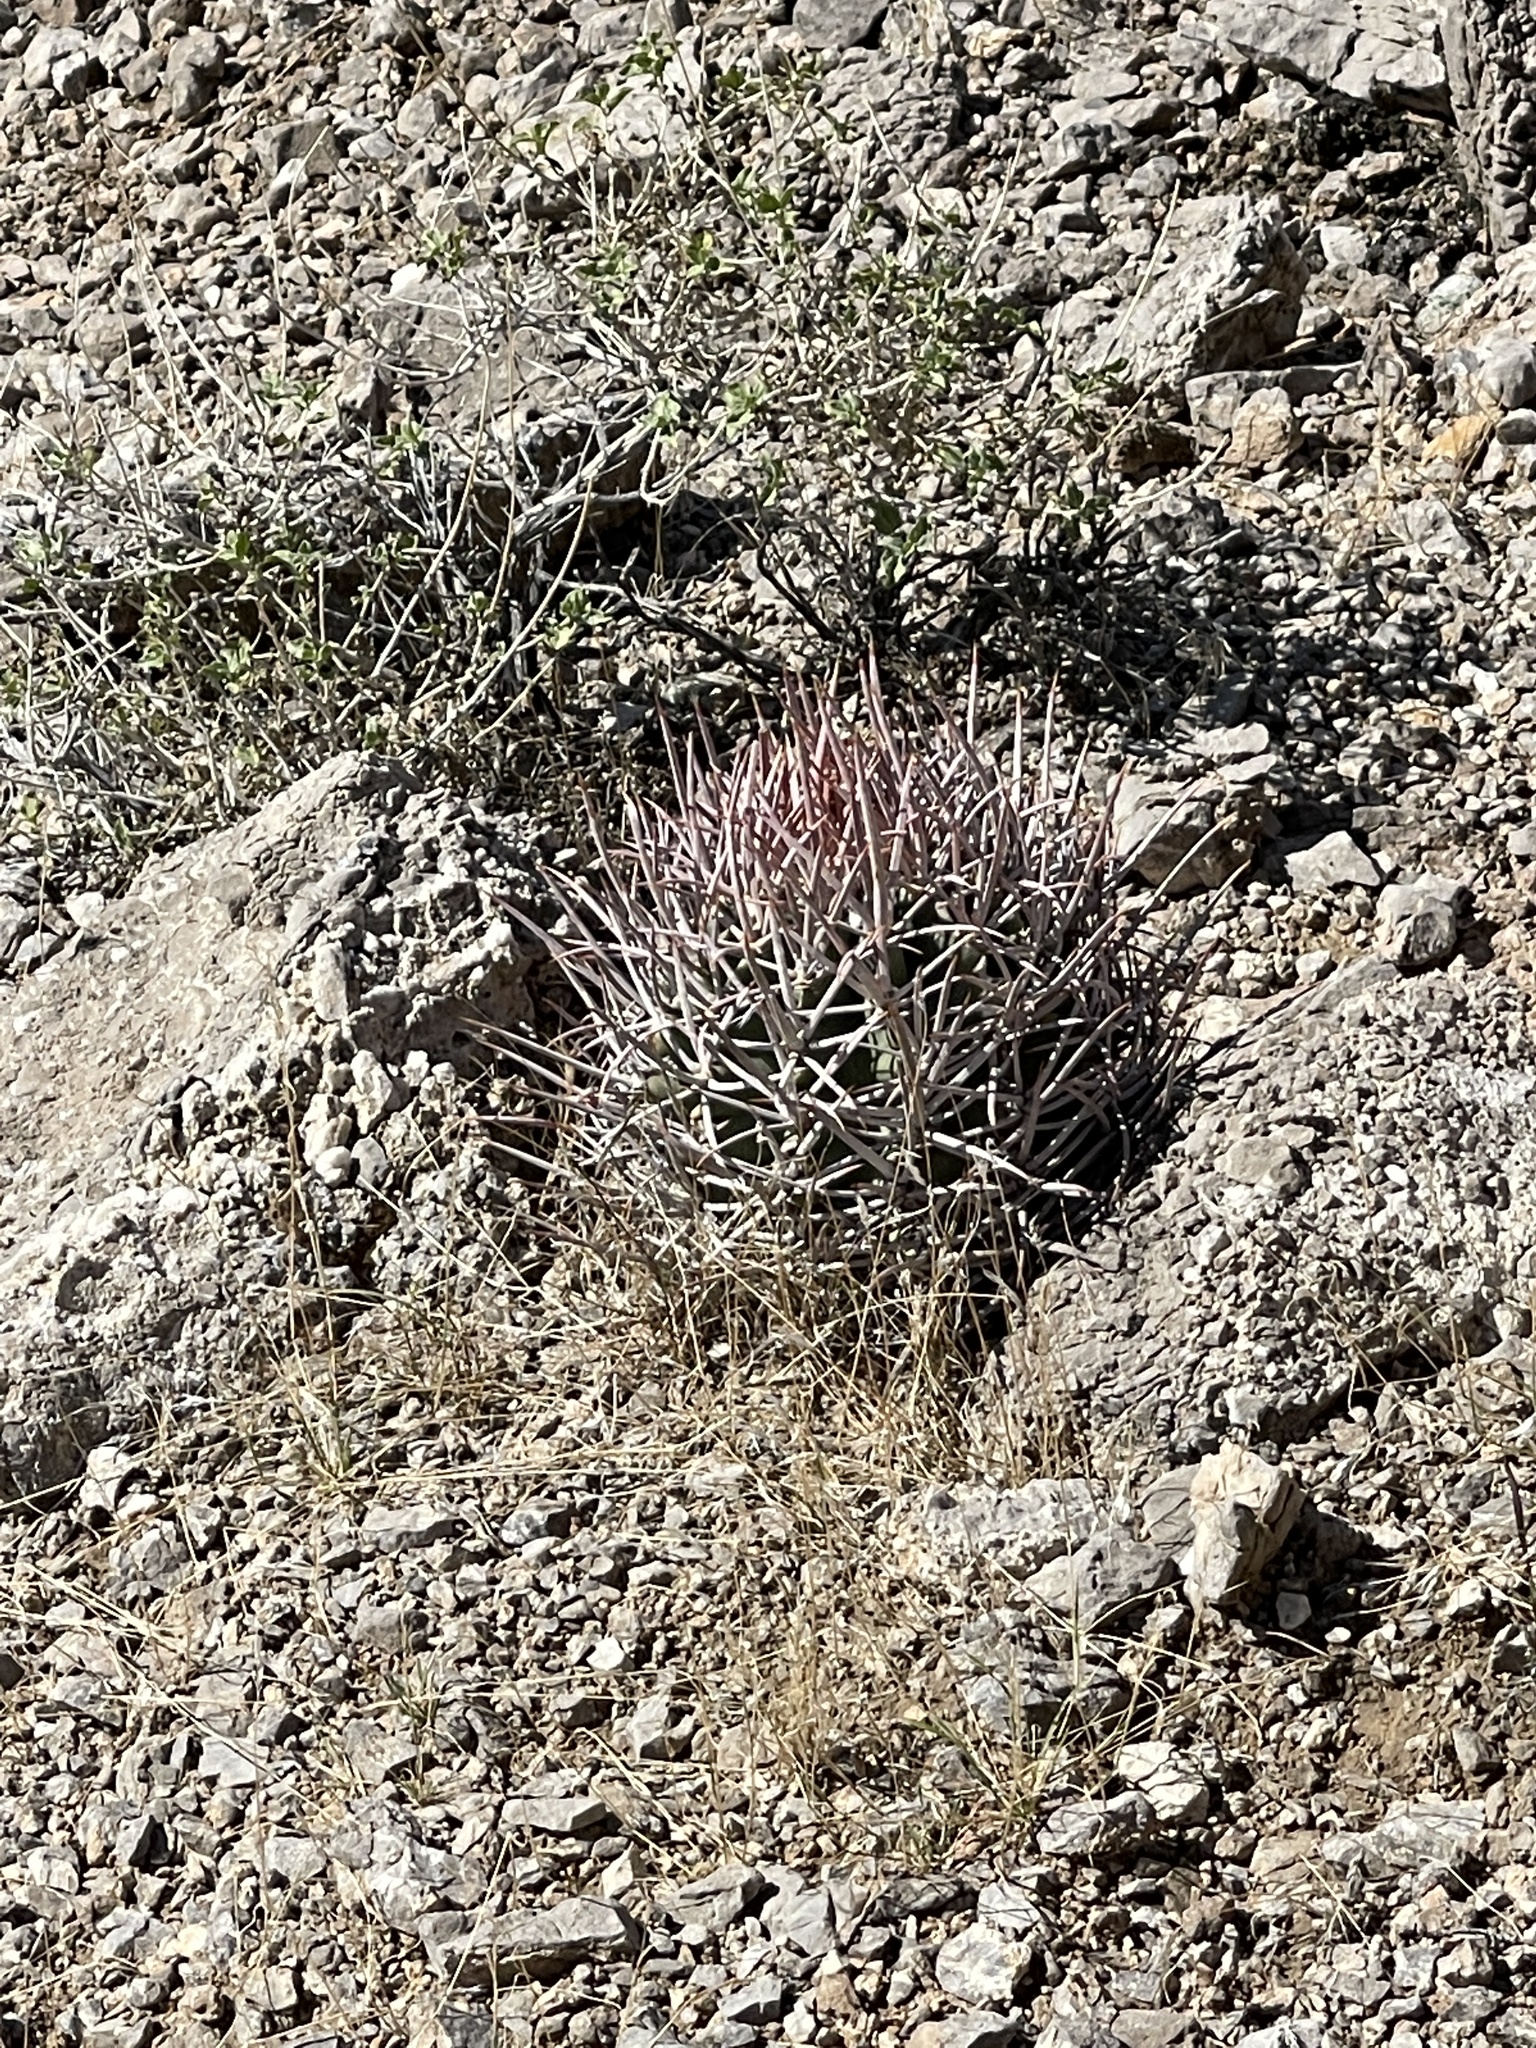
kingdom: Plantae
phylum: Tracheophyta
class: Magnoliopsida
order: Caryophyllales
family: Cactaceae
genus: Echinocactus
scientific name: Echinocactus polycephalus
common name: Cottontop cactus
